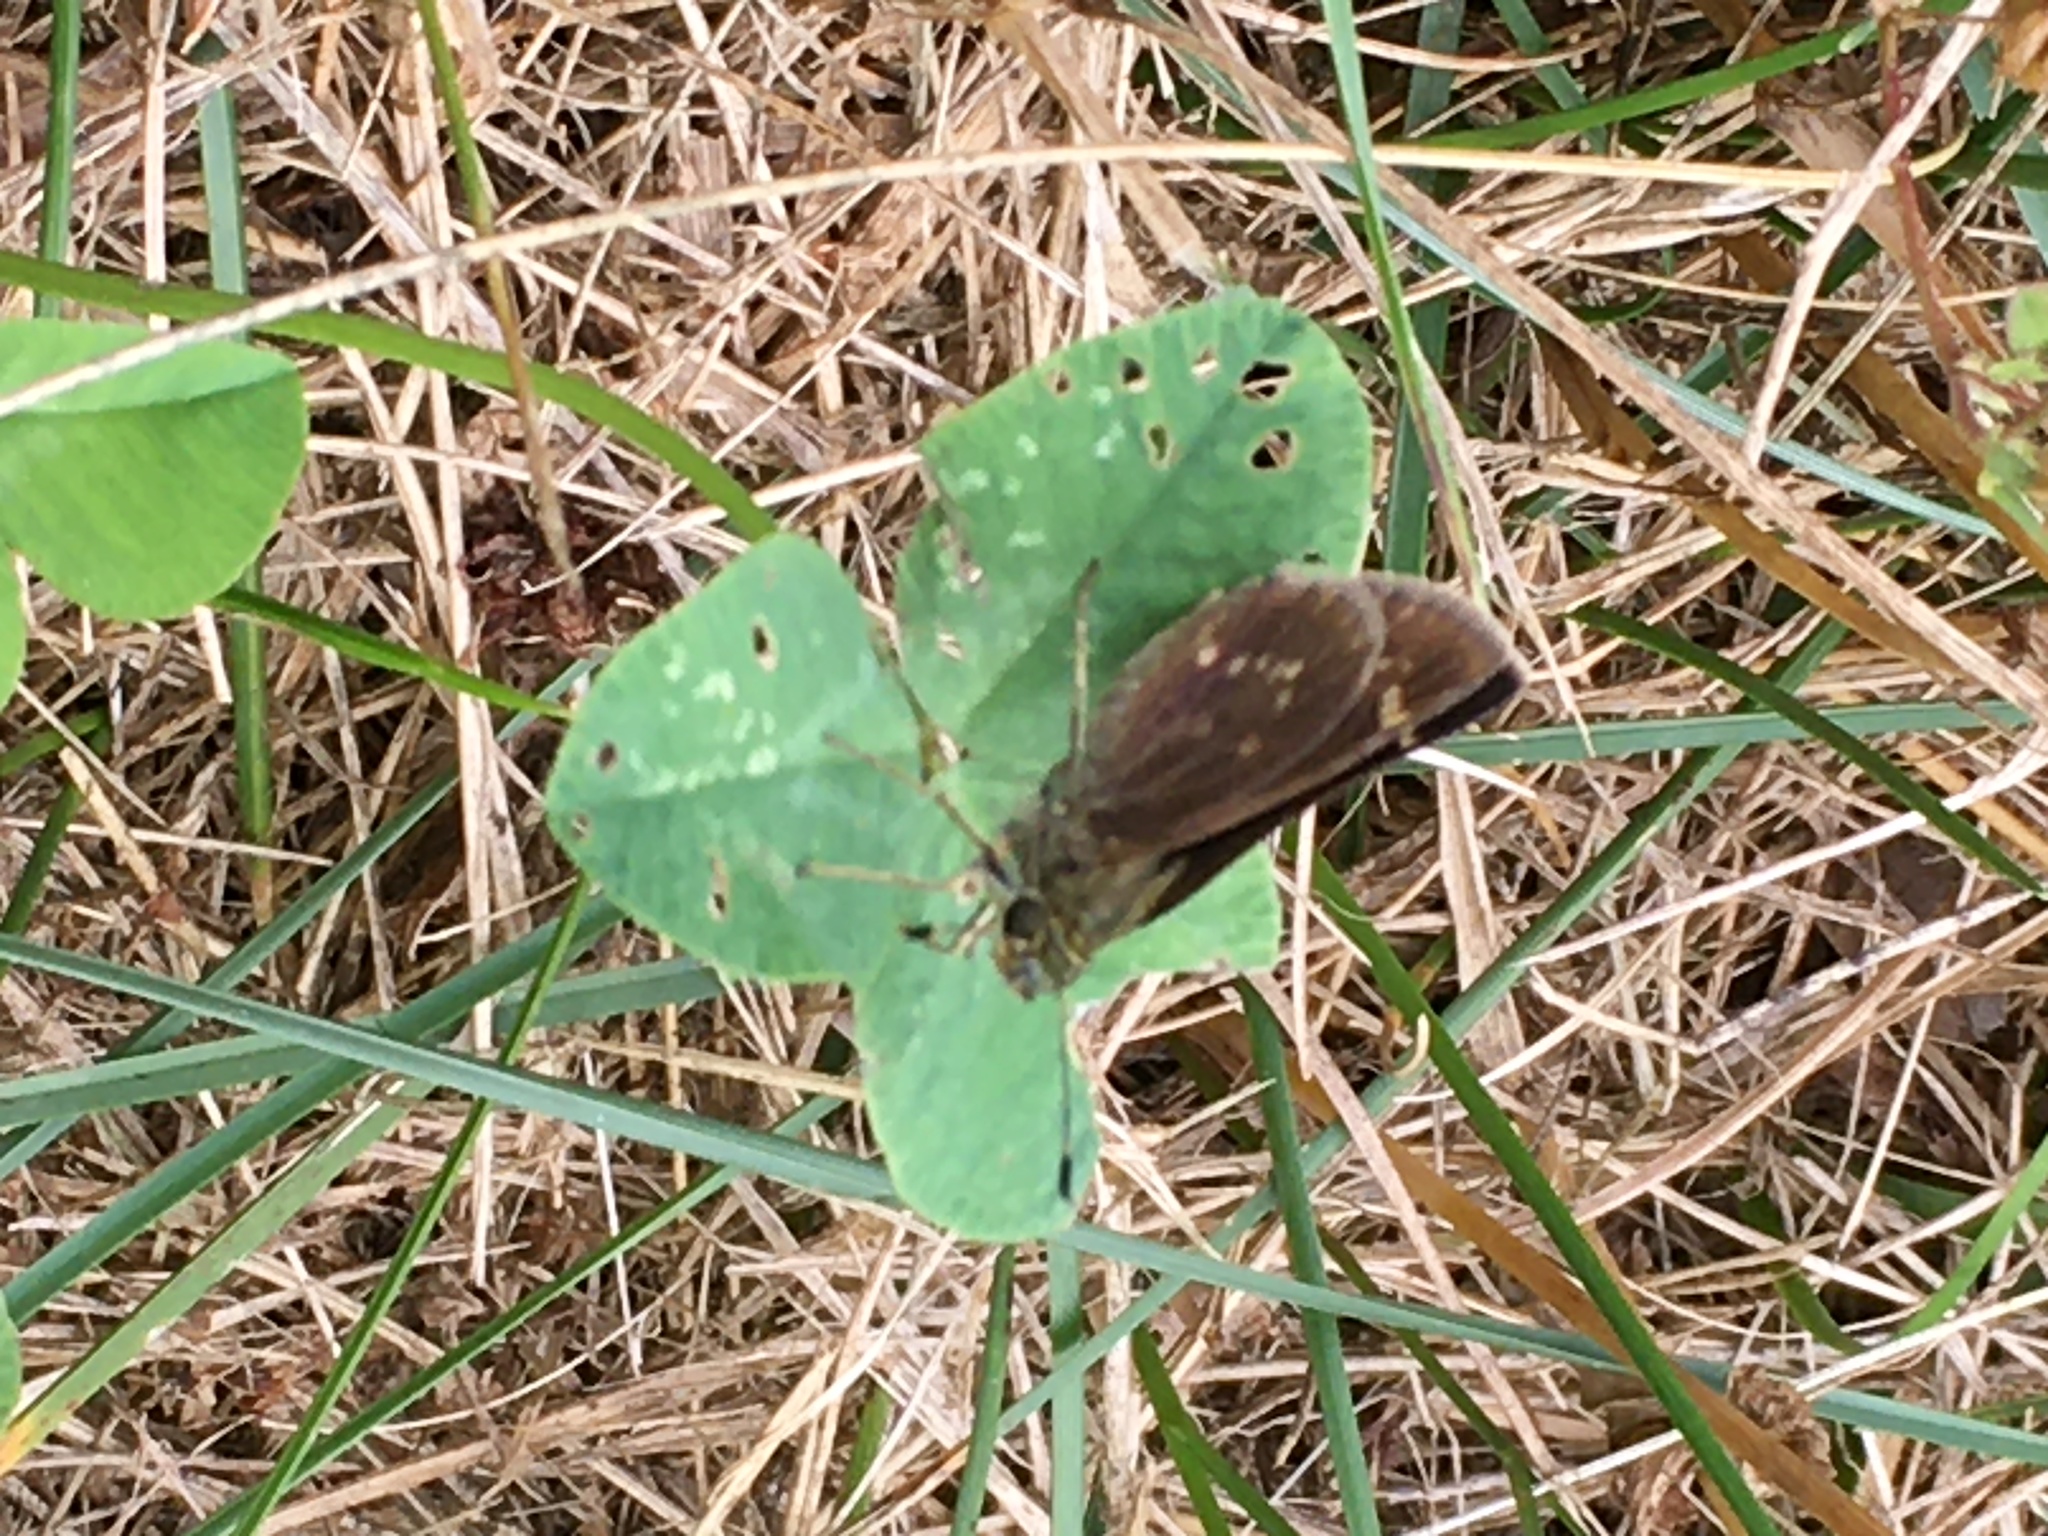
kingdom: Animalia
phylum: Arthropoda
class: Insecta
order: Lepidoptera
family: Hesperiidae
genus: Vernia
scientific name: Vernia verna
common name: Little glassywing
